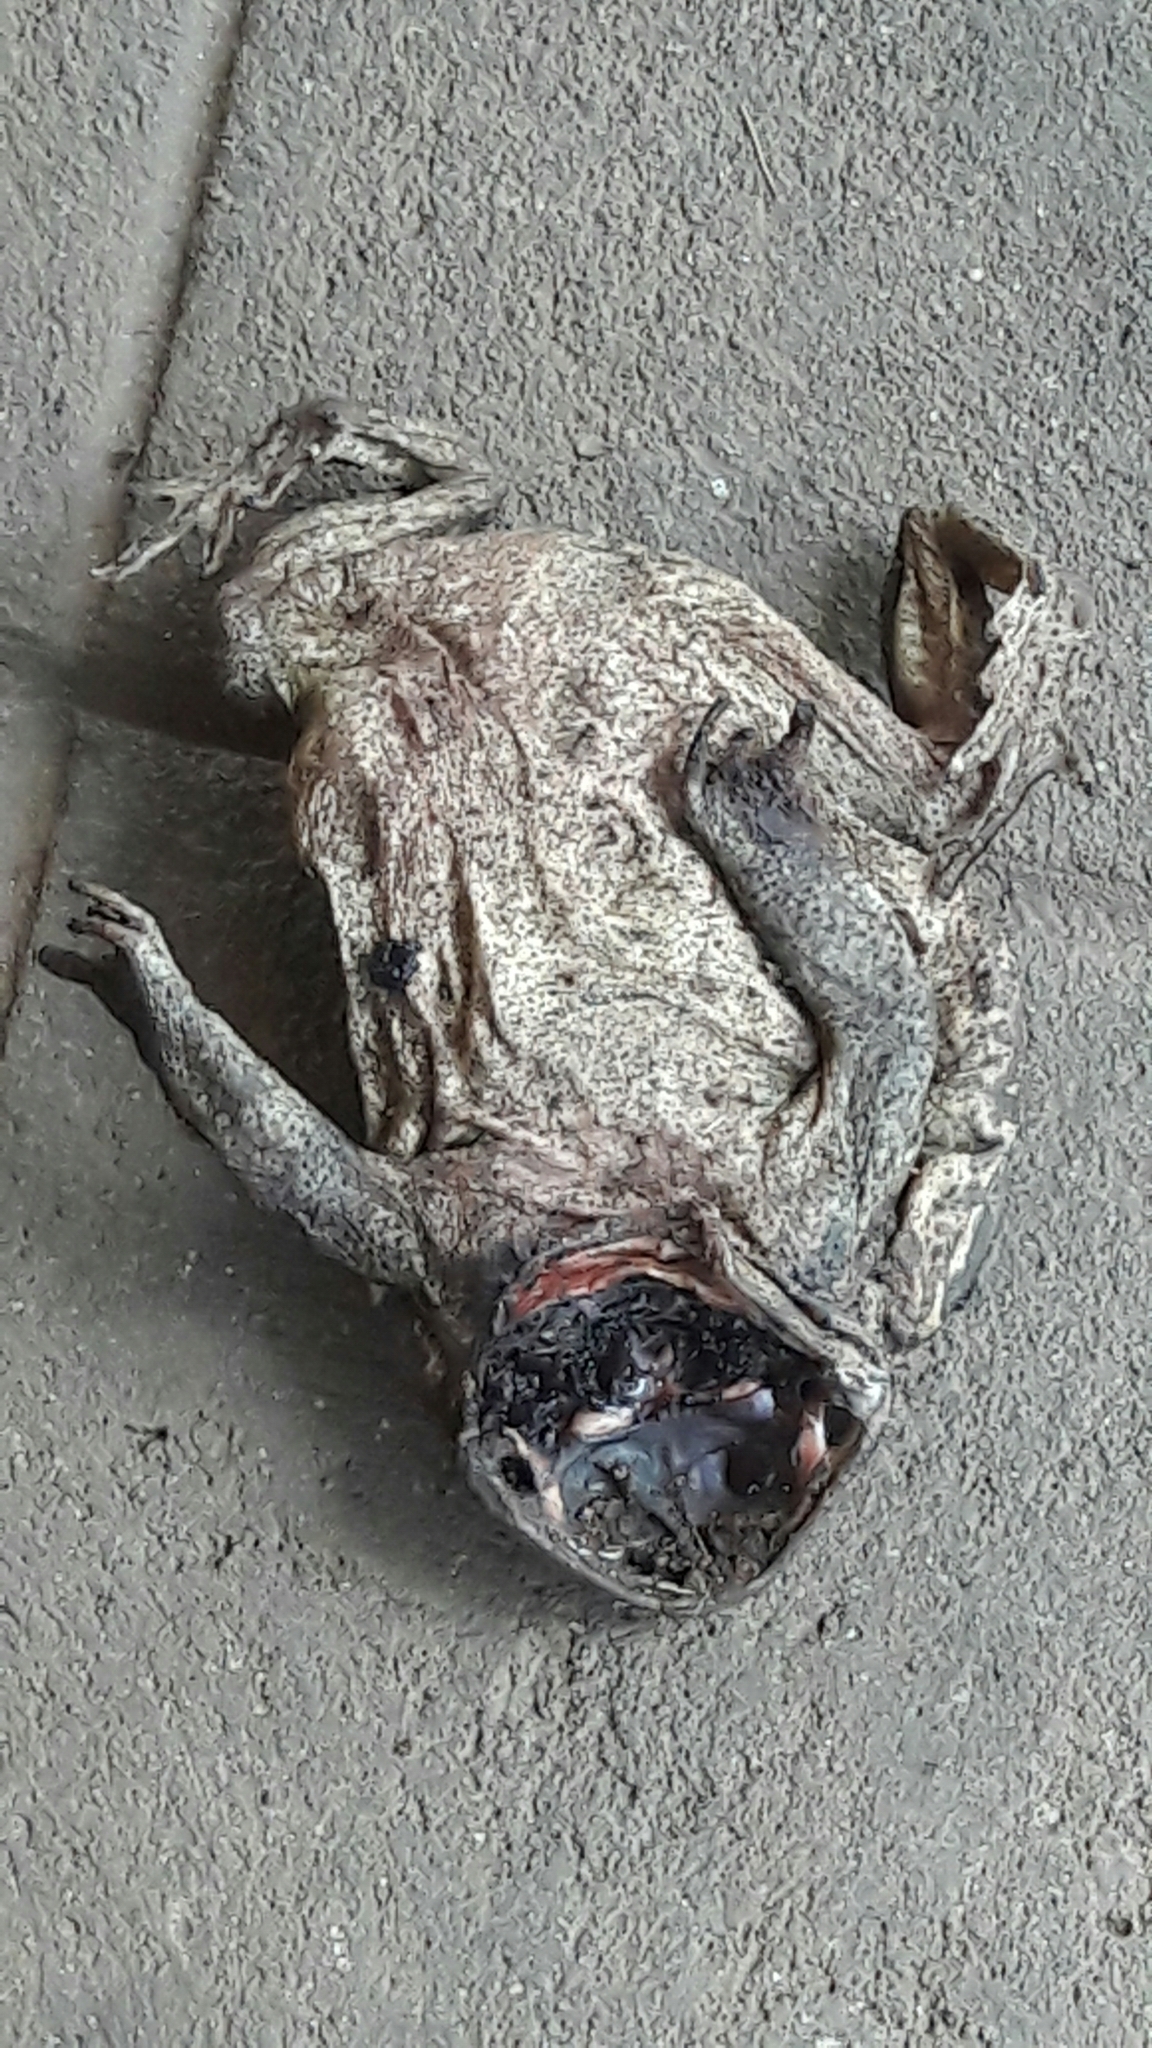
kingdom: Animalia
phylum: Chordata
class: Amphibia
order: Anura
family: Bufonidae
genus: Rhinella
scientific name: Rhinella diptycha
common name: Cope's toad
